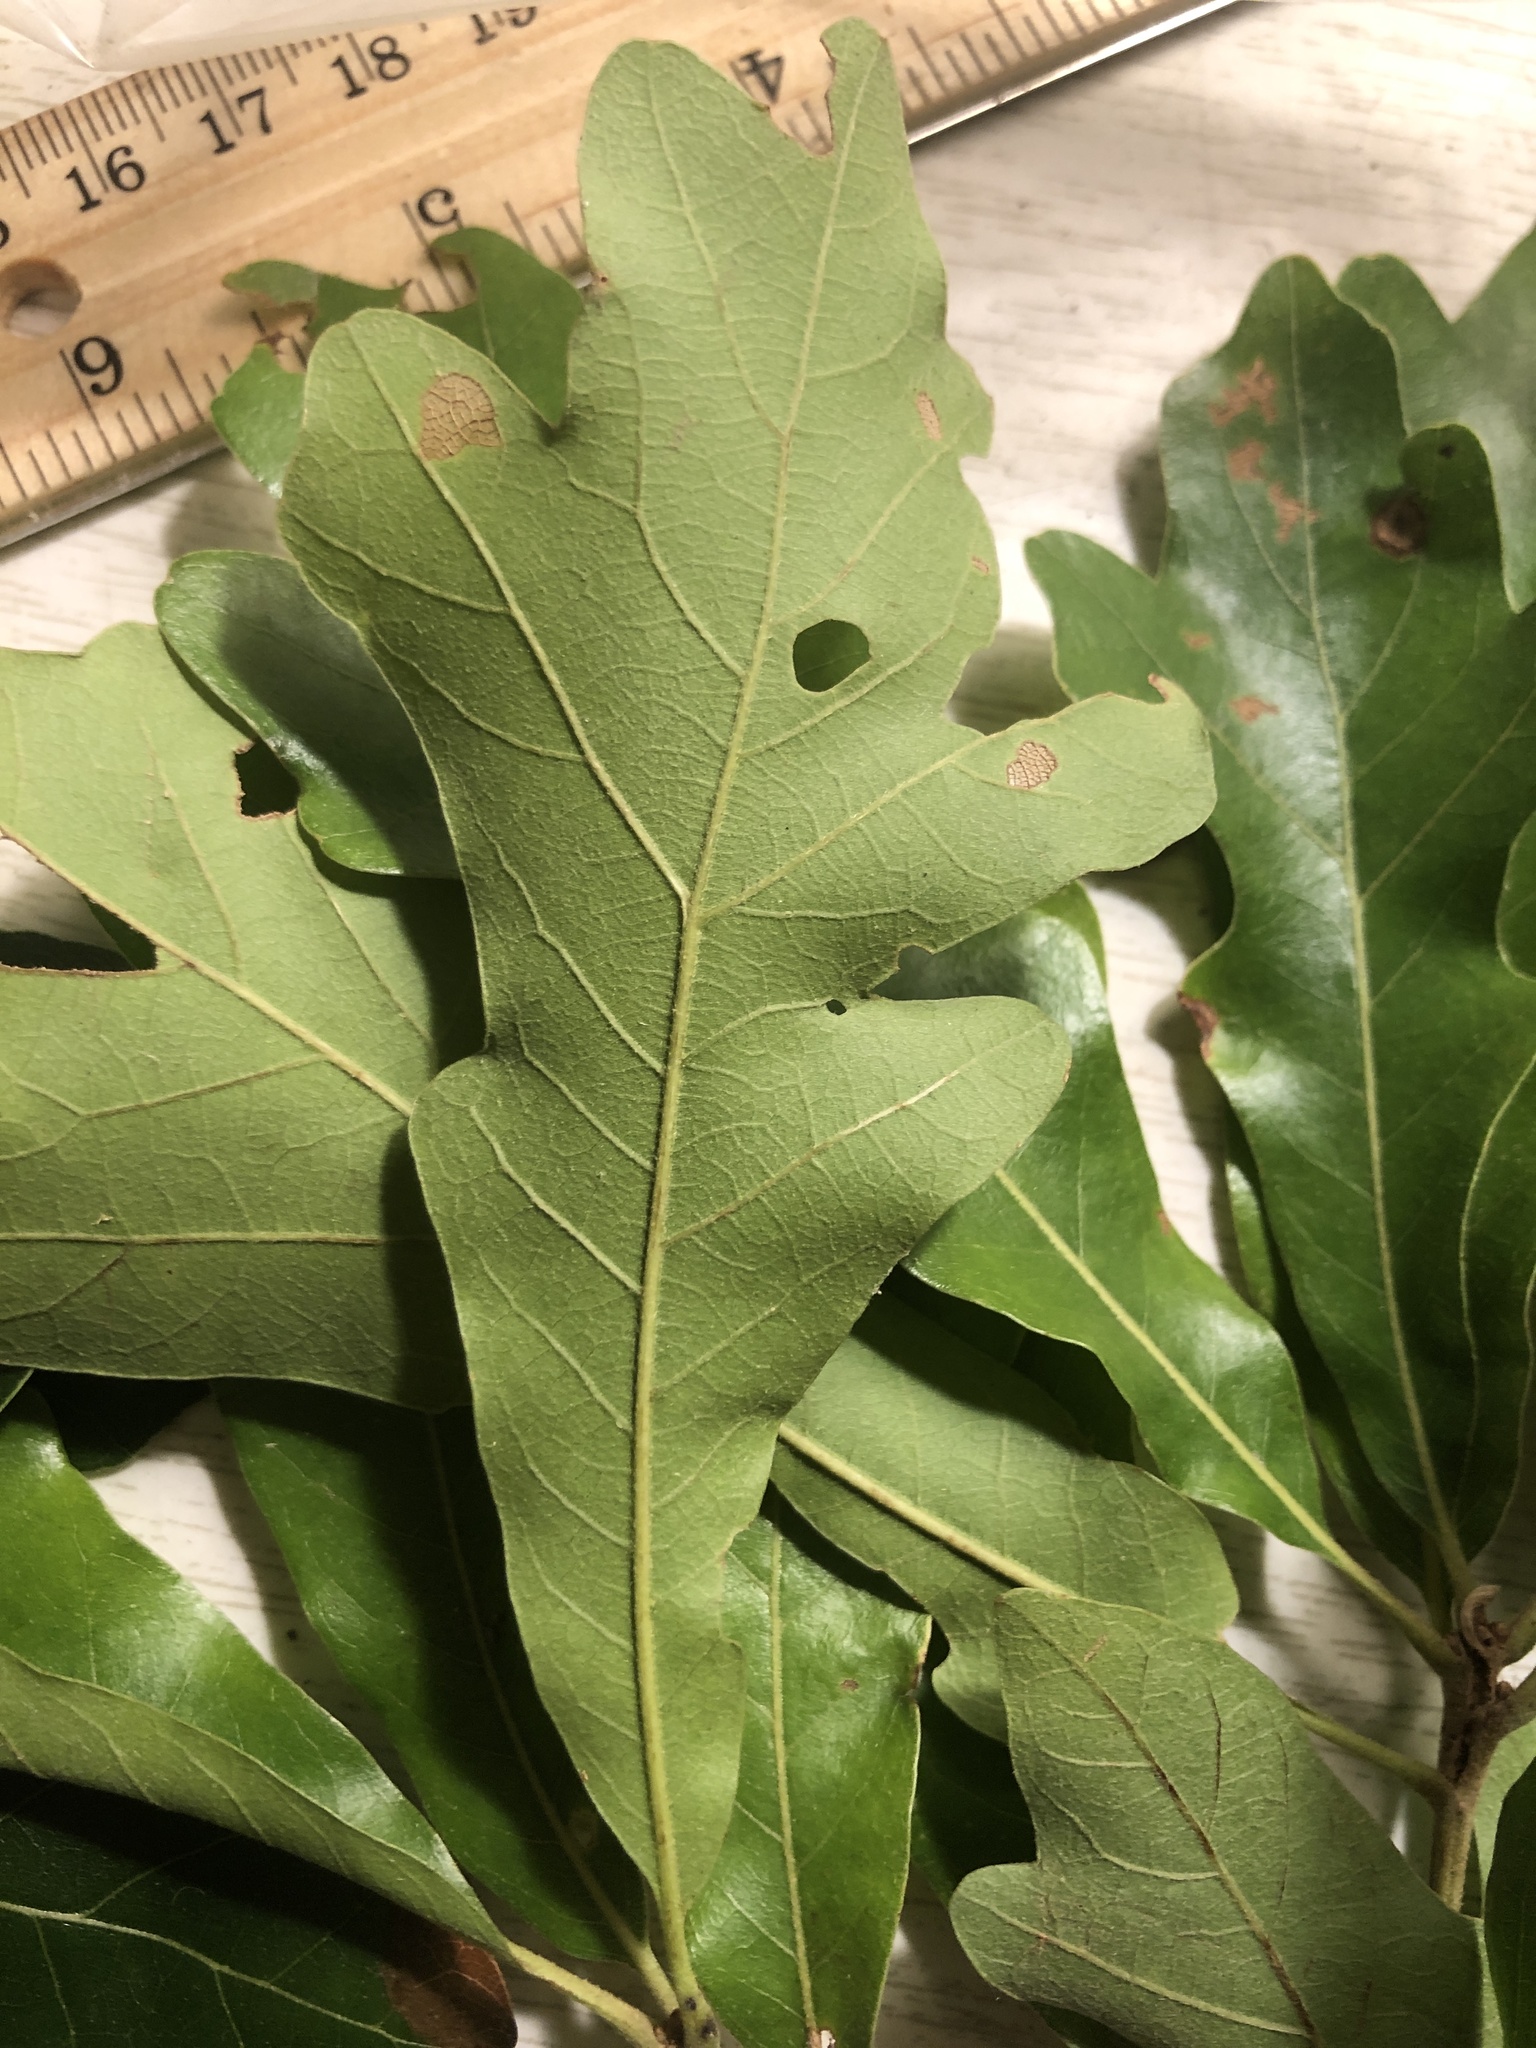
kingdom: Plantae
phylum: Tracheophyta
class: Magnoliopsida
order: Fagales
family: Fagaceae
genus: Quercus
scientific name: Quercus stellata
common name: Post oak
